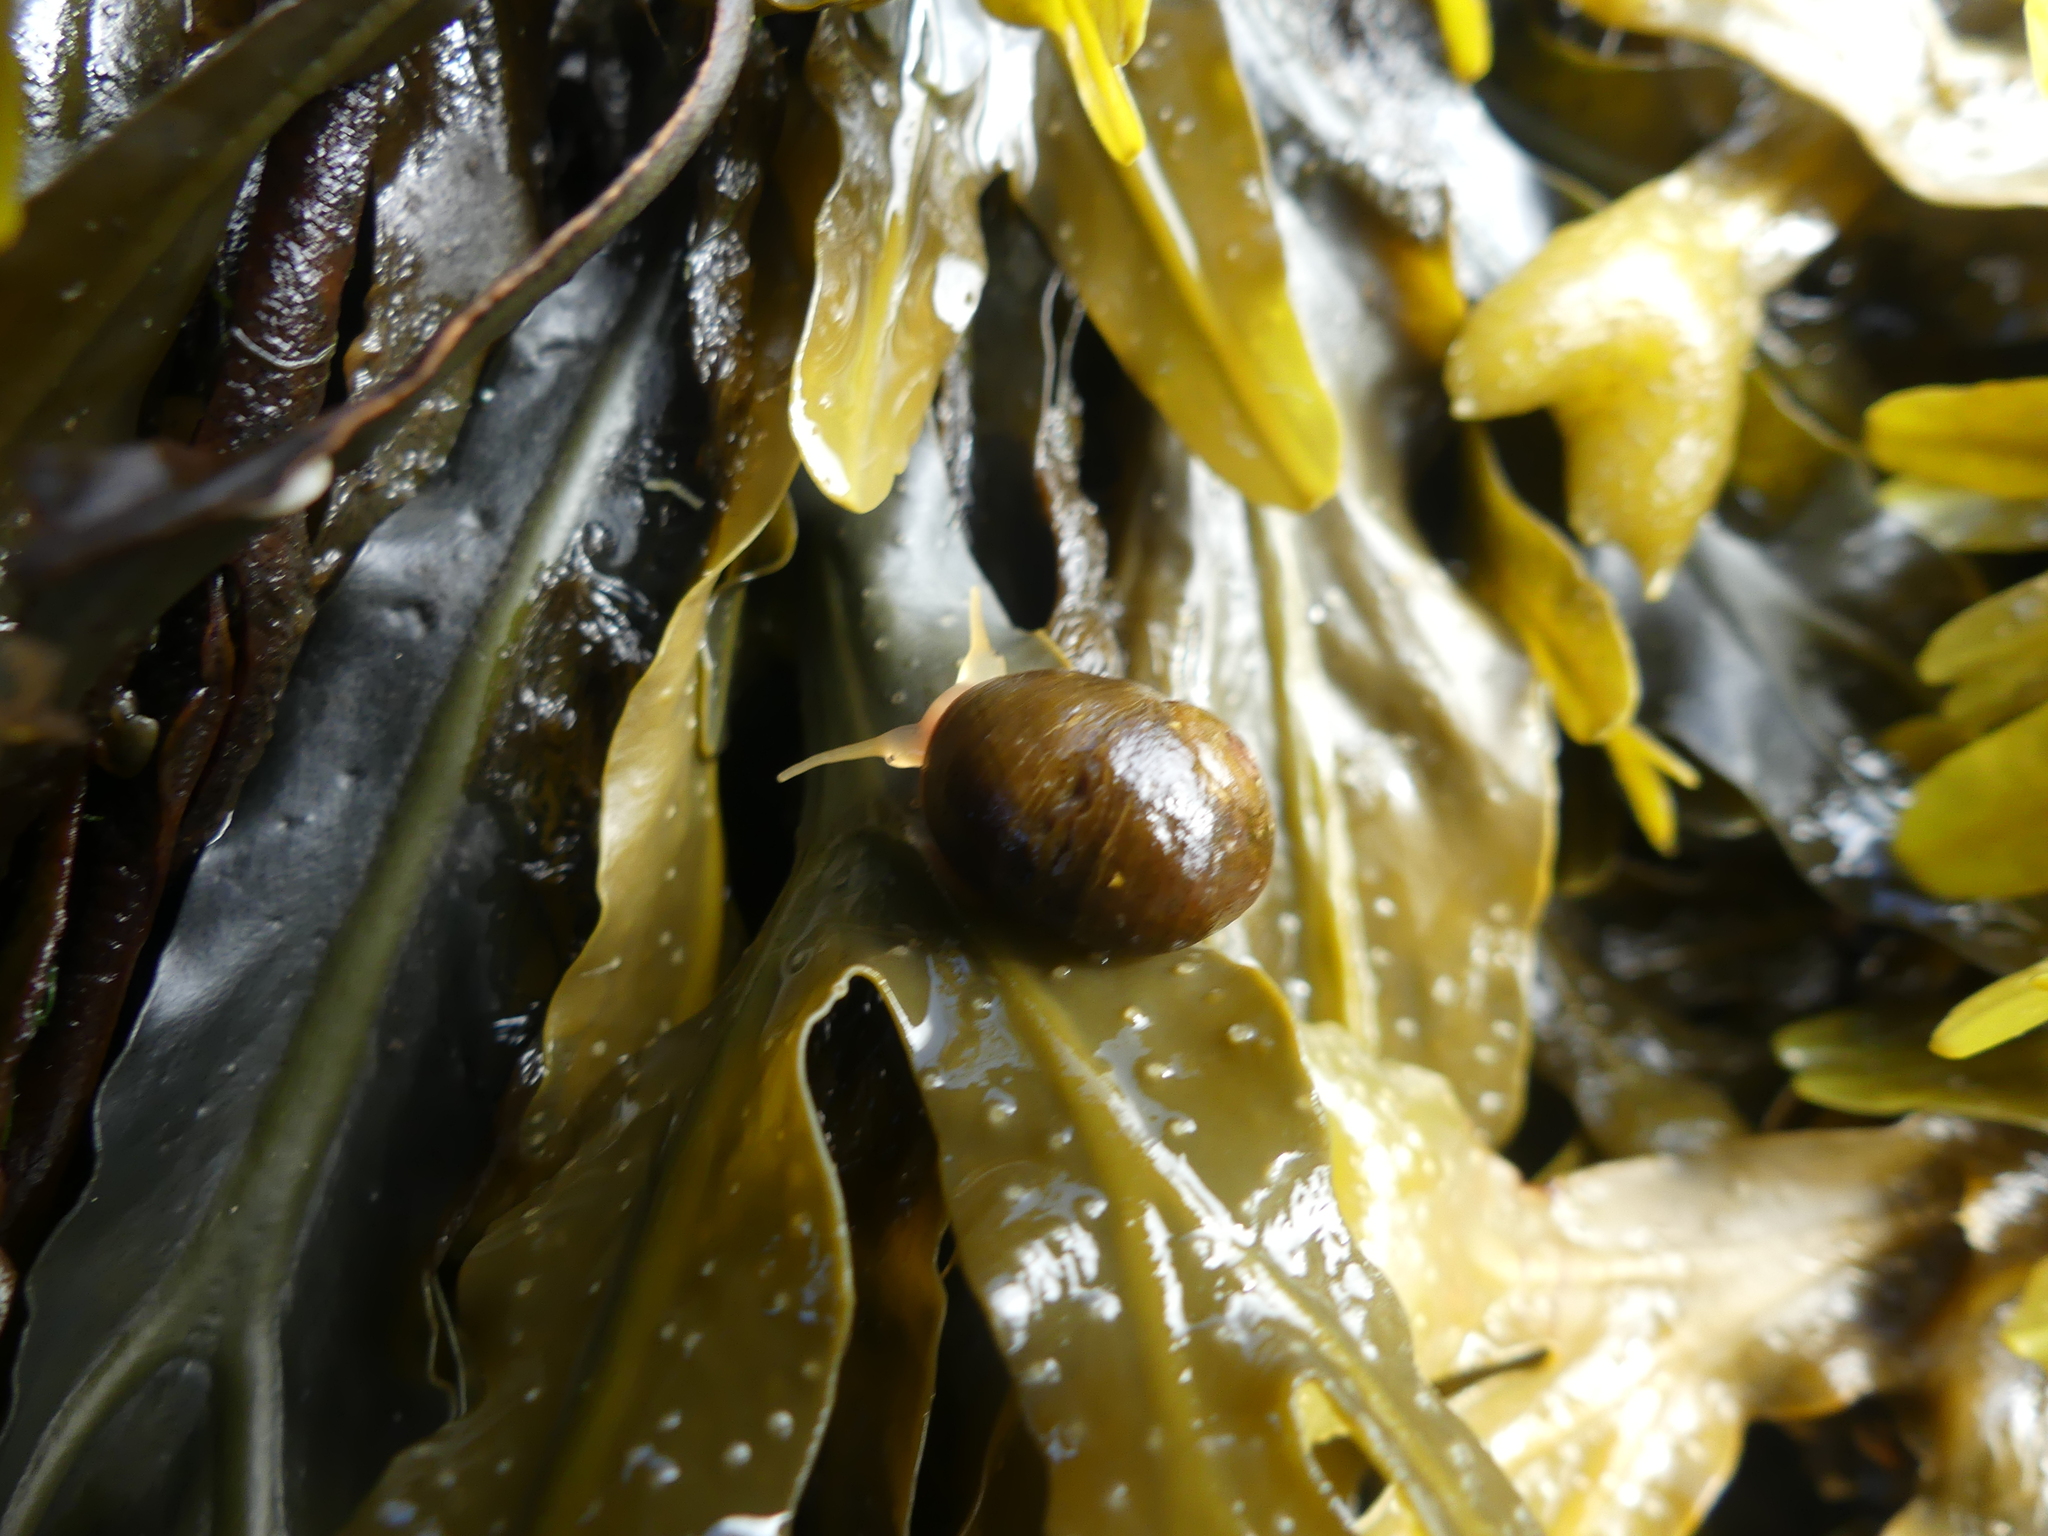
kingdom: Animalia
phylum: Mollusca
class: Gastropoda
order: Littorinimorpha
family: Littorinidae
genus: Littorina
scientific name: Littorina obtusata
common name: Flat periwinkle
